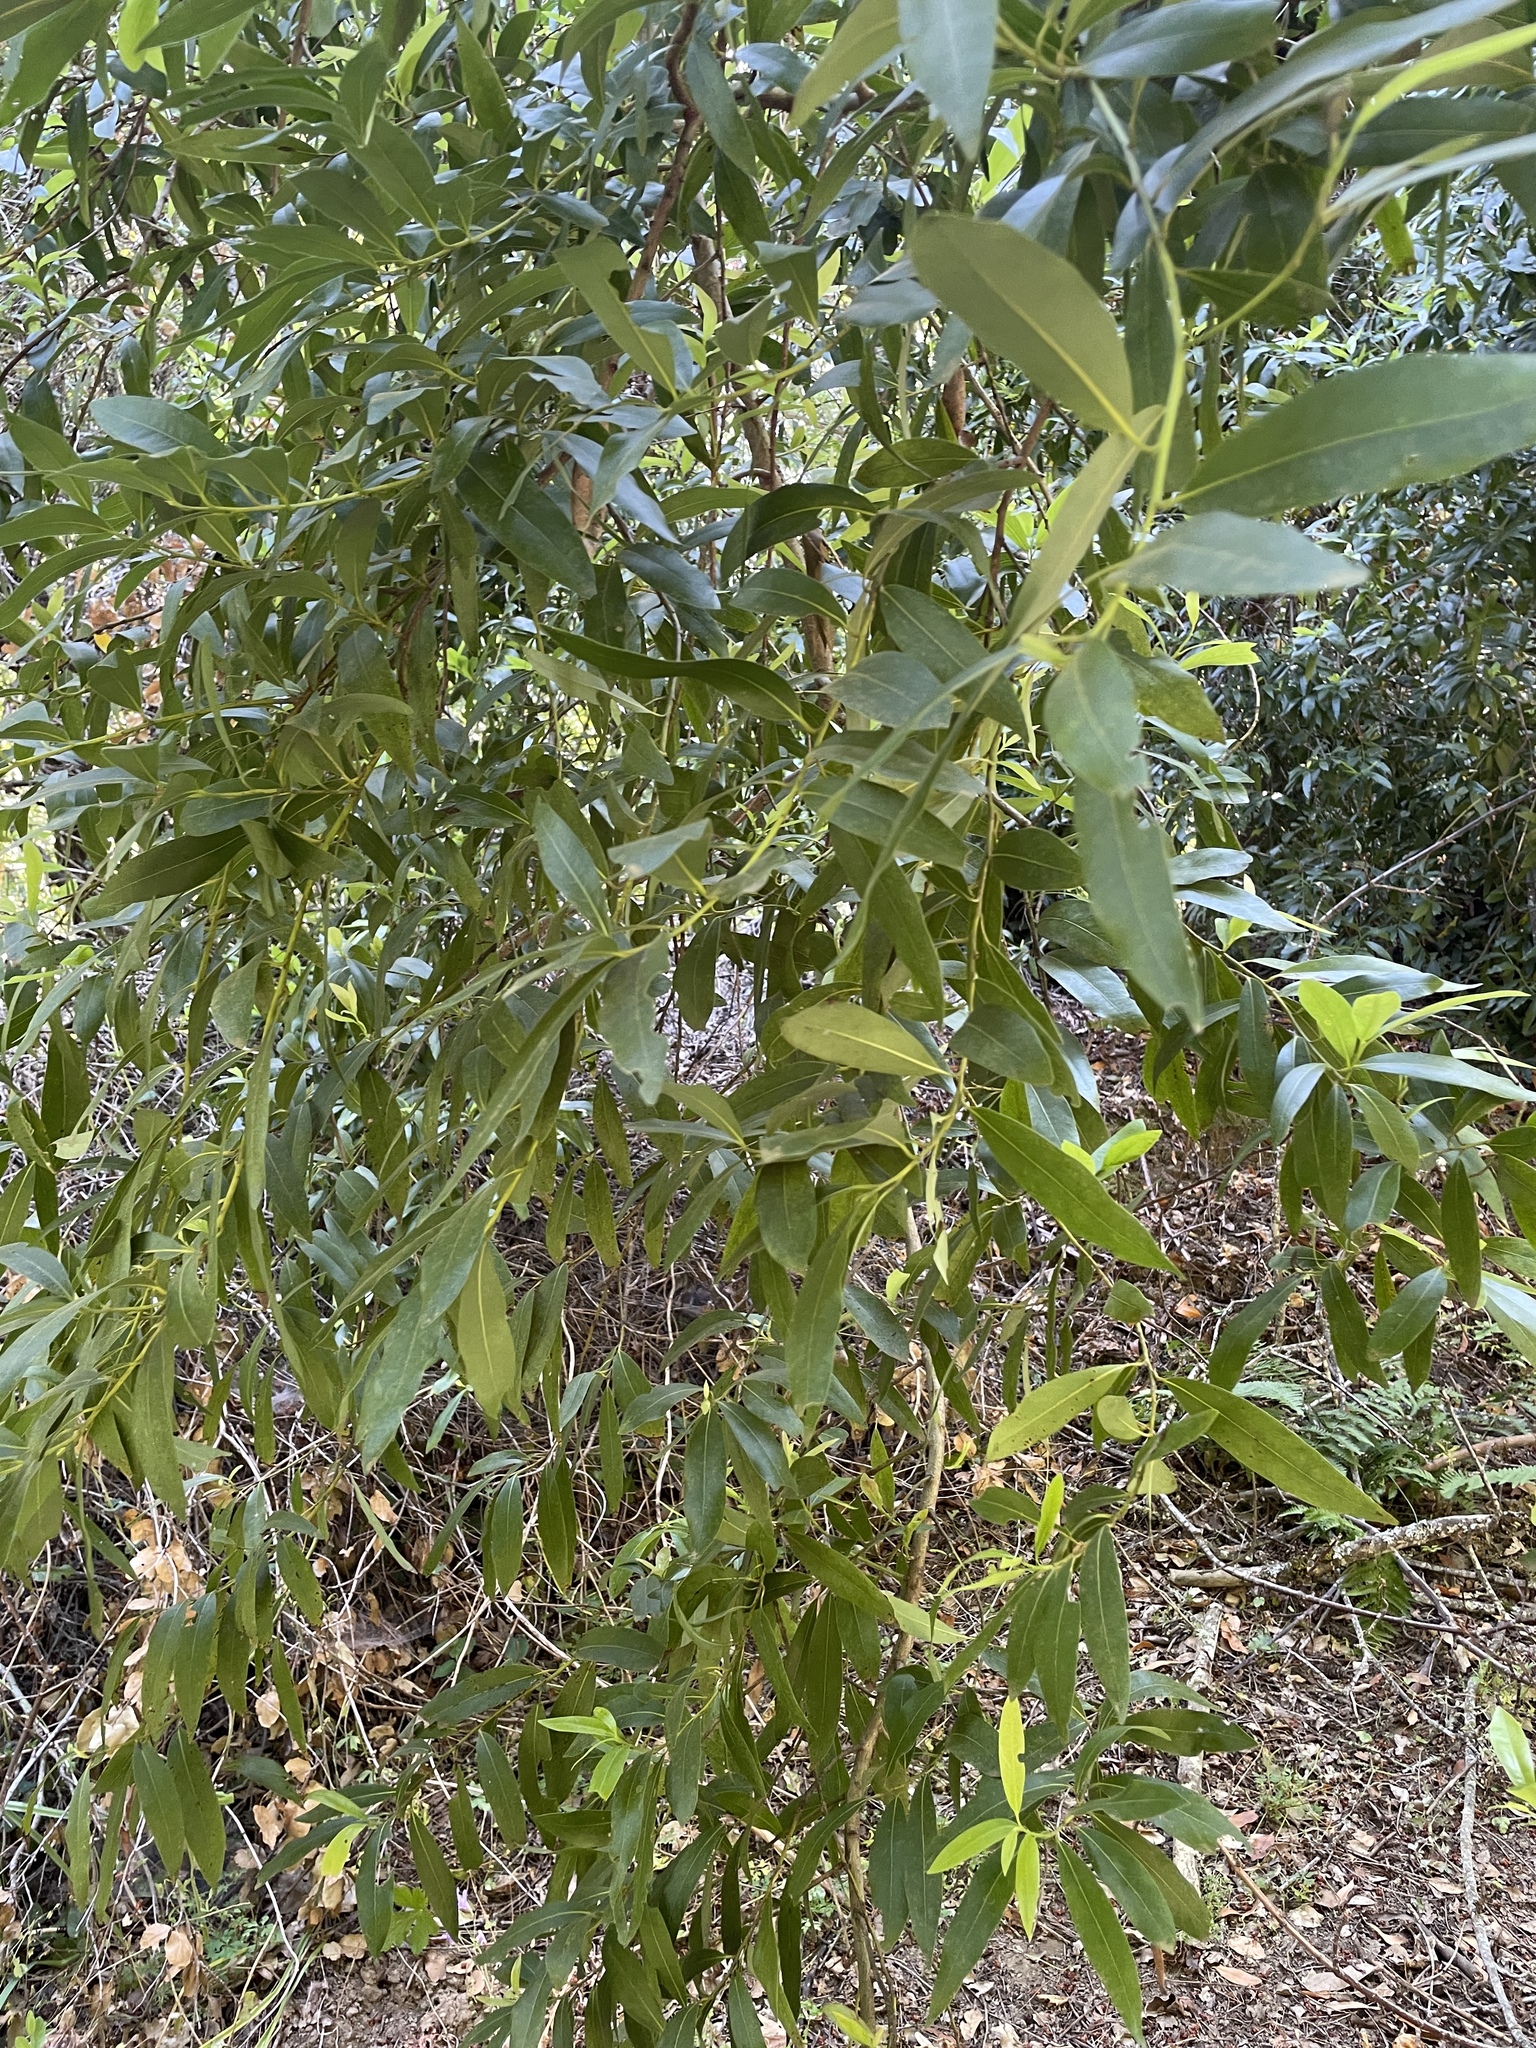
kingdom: Plantae
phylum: Tracheophyta
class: Magnoliopsida
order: Laurales
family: Lauraceae
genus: Umbellularia
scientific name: Umbellularia californica
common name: California bay
